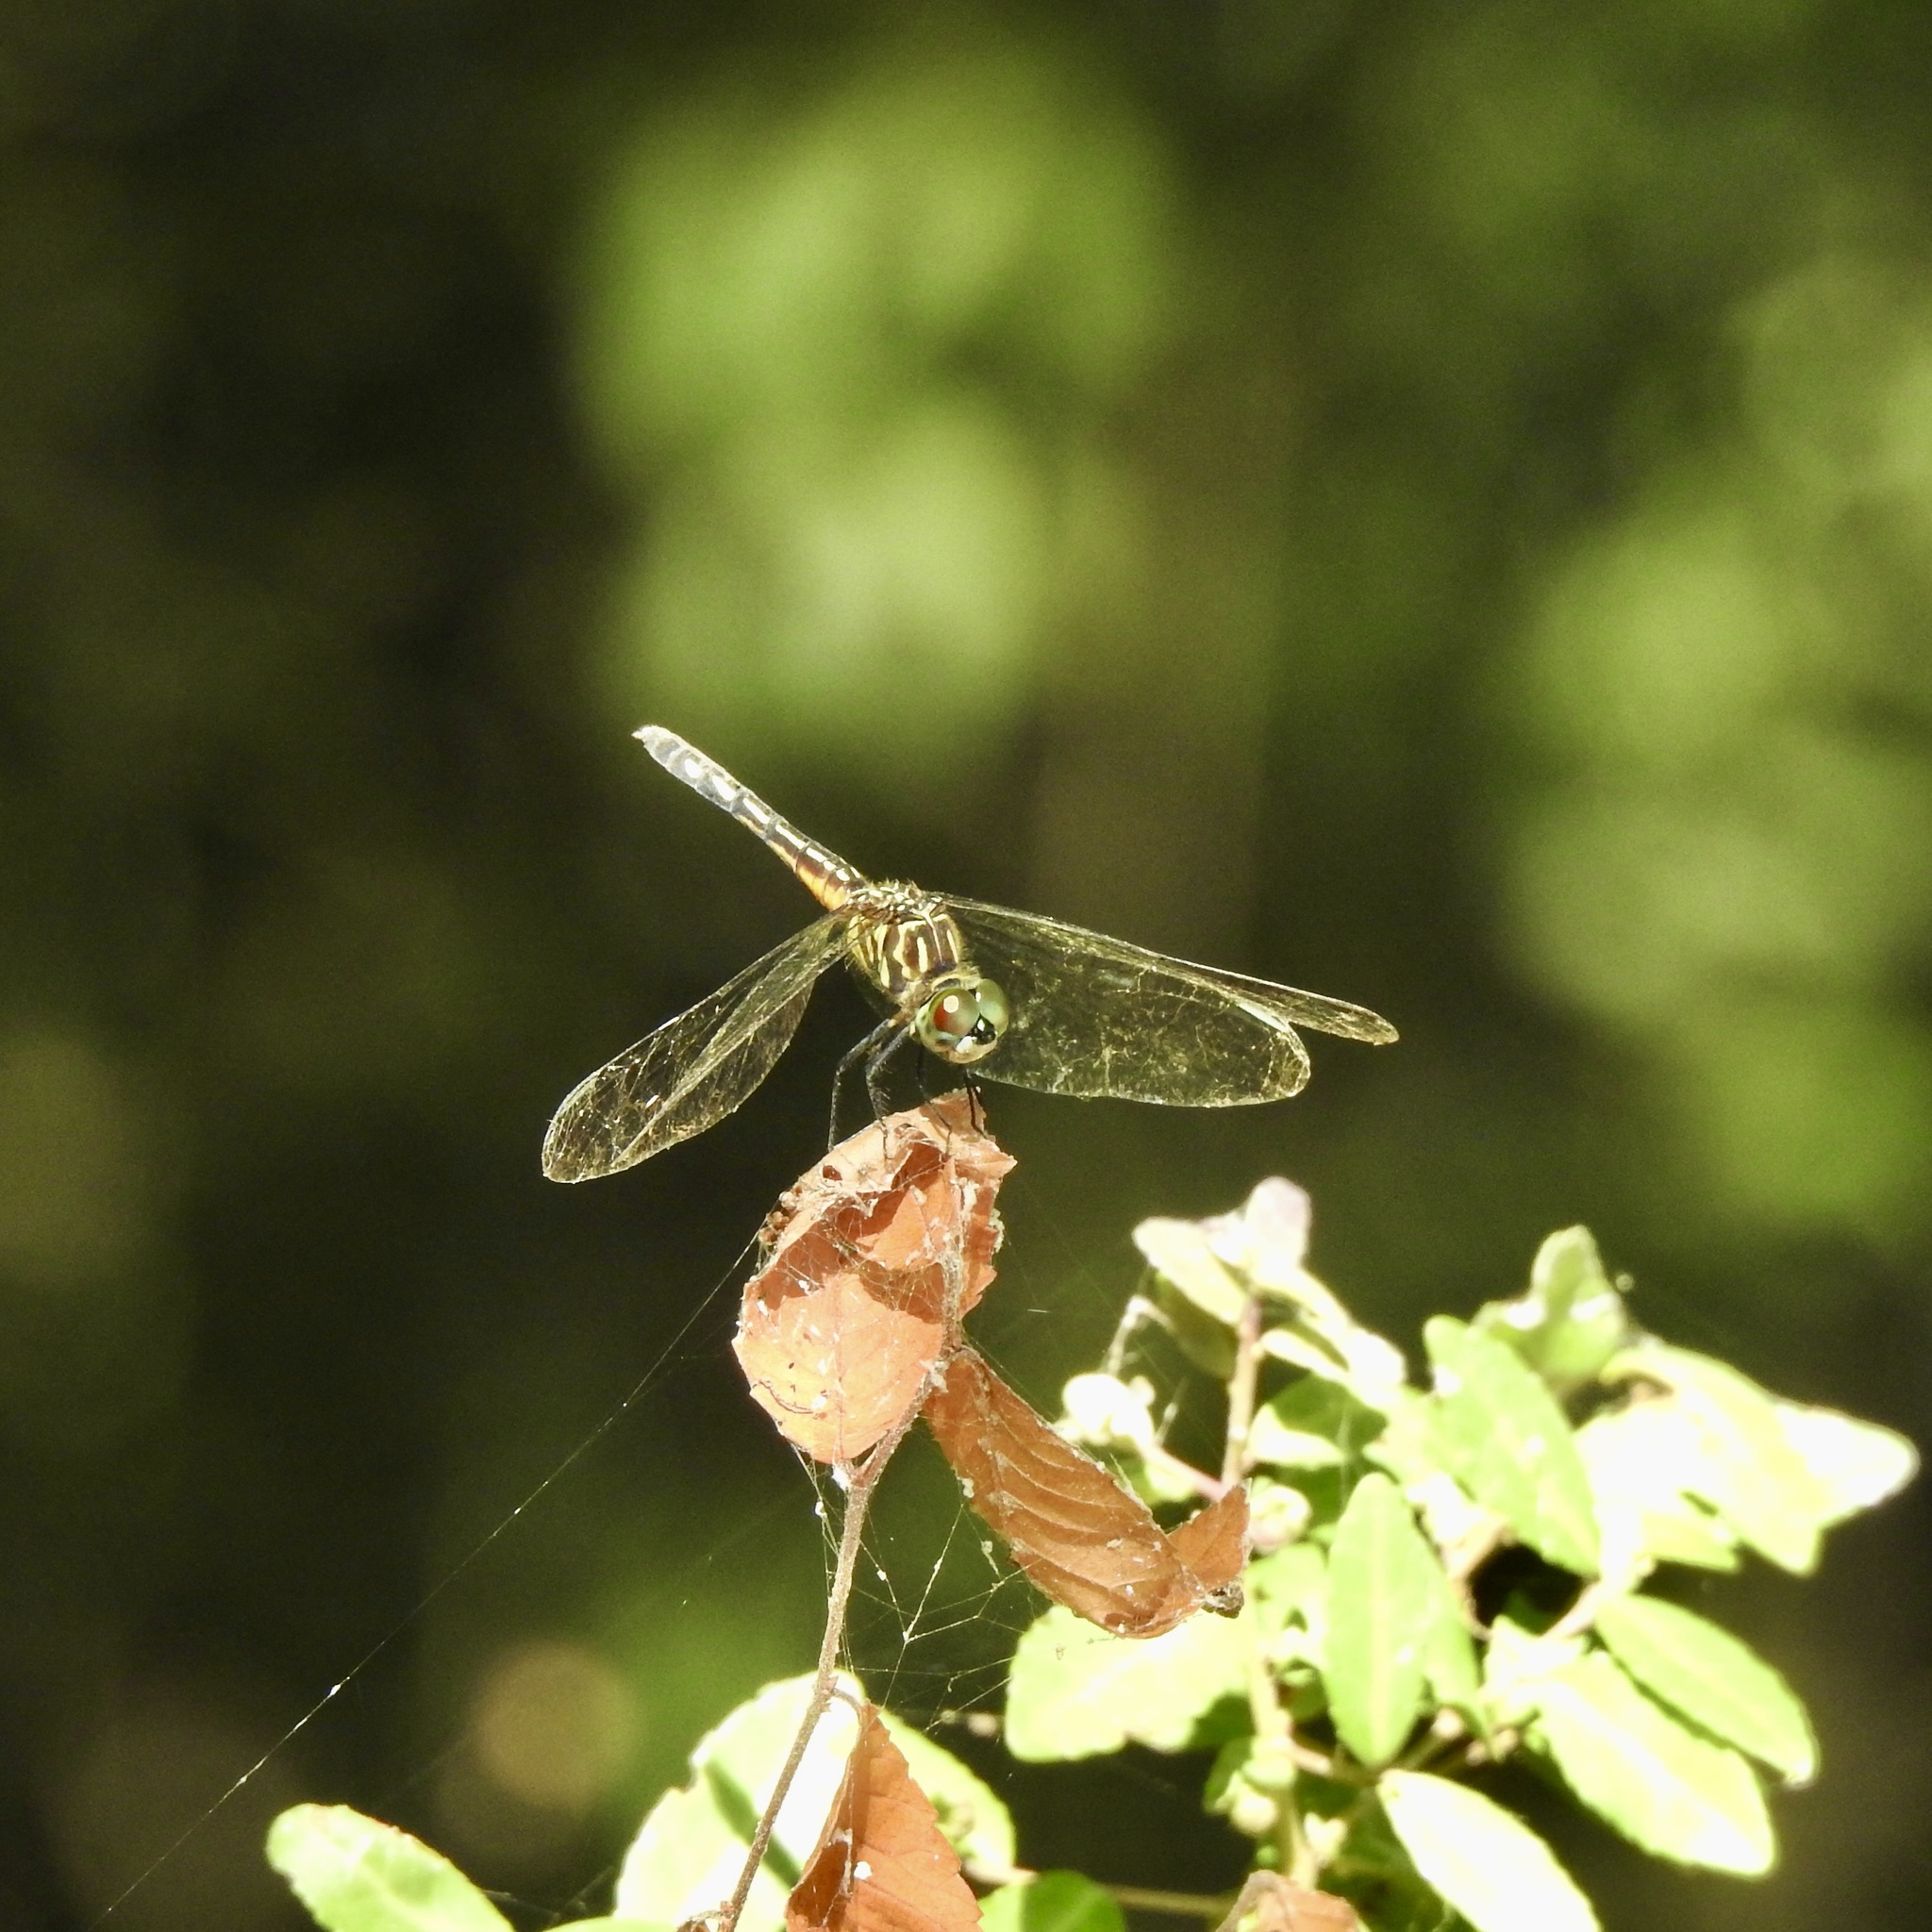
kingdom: Animalia
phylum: Arthropoda
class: Insecta
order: Odonata
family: Libellulidae
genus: Pachydiplax
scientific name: Pachydiplax longipennis
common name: Blue dasher
